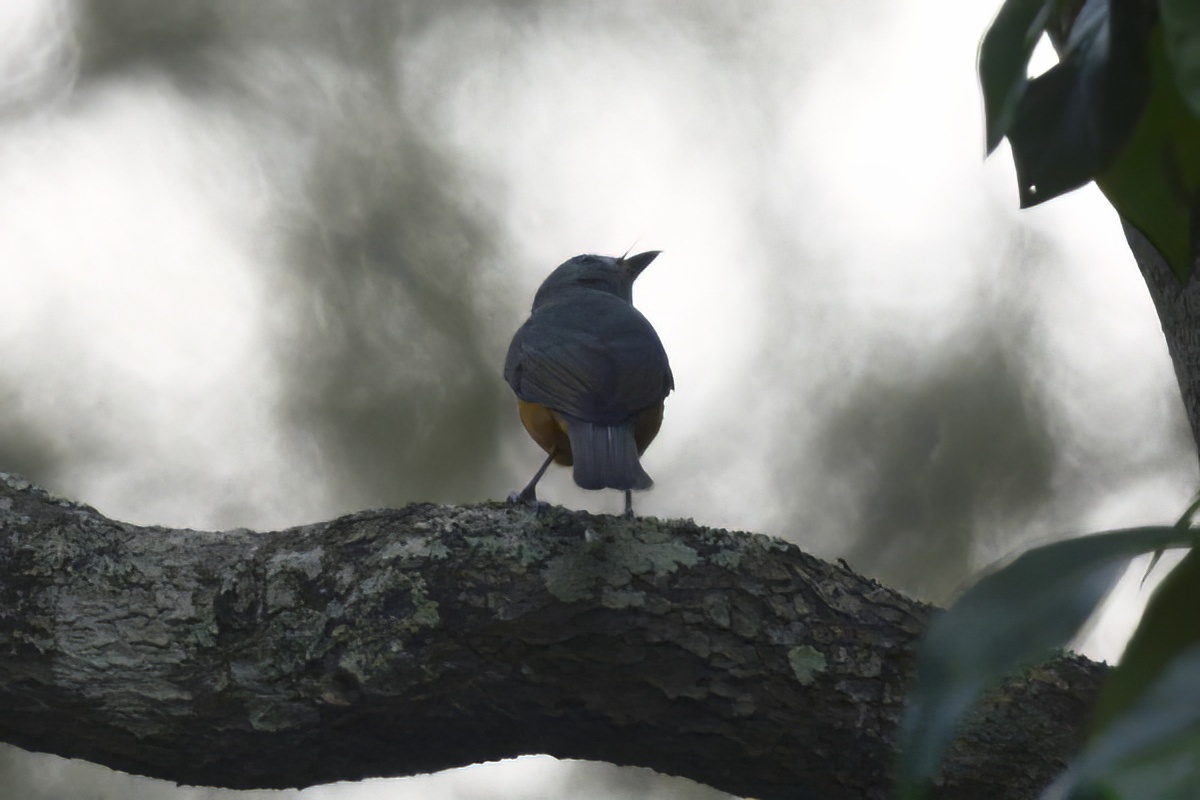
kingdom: Animalia
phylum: Chordata
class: Aves
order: Passeriformes
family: Monarchidae
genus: Monarcha
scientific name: Monarcha melanopsis
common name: Black-faced monarch
